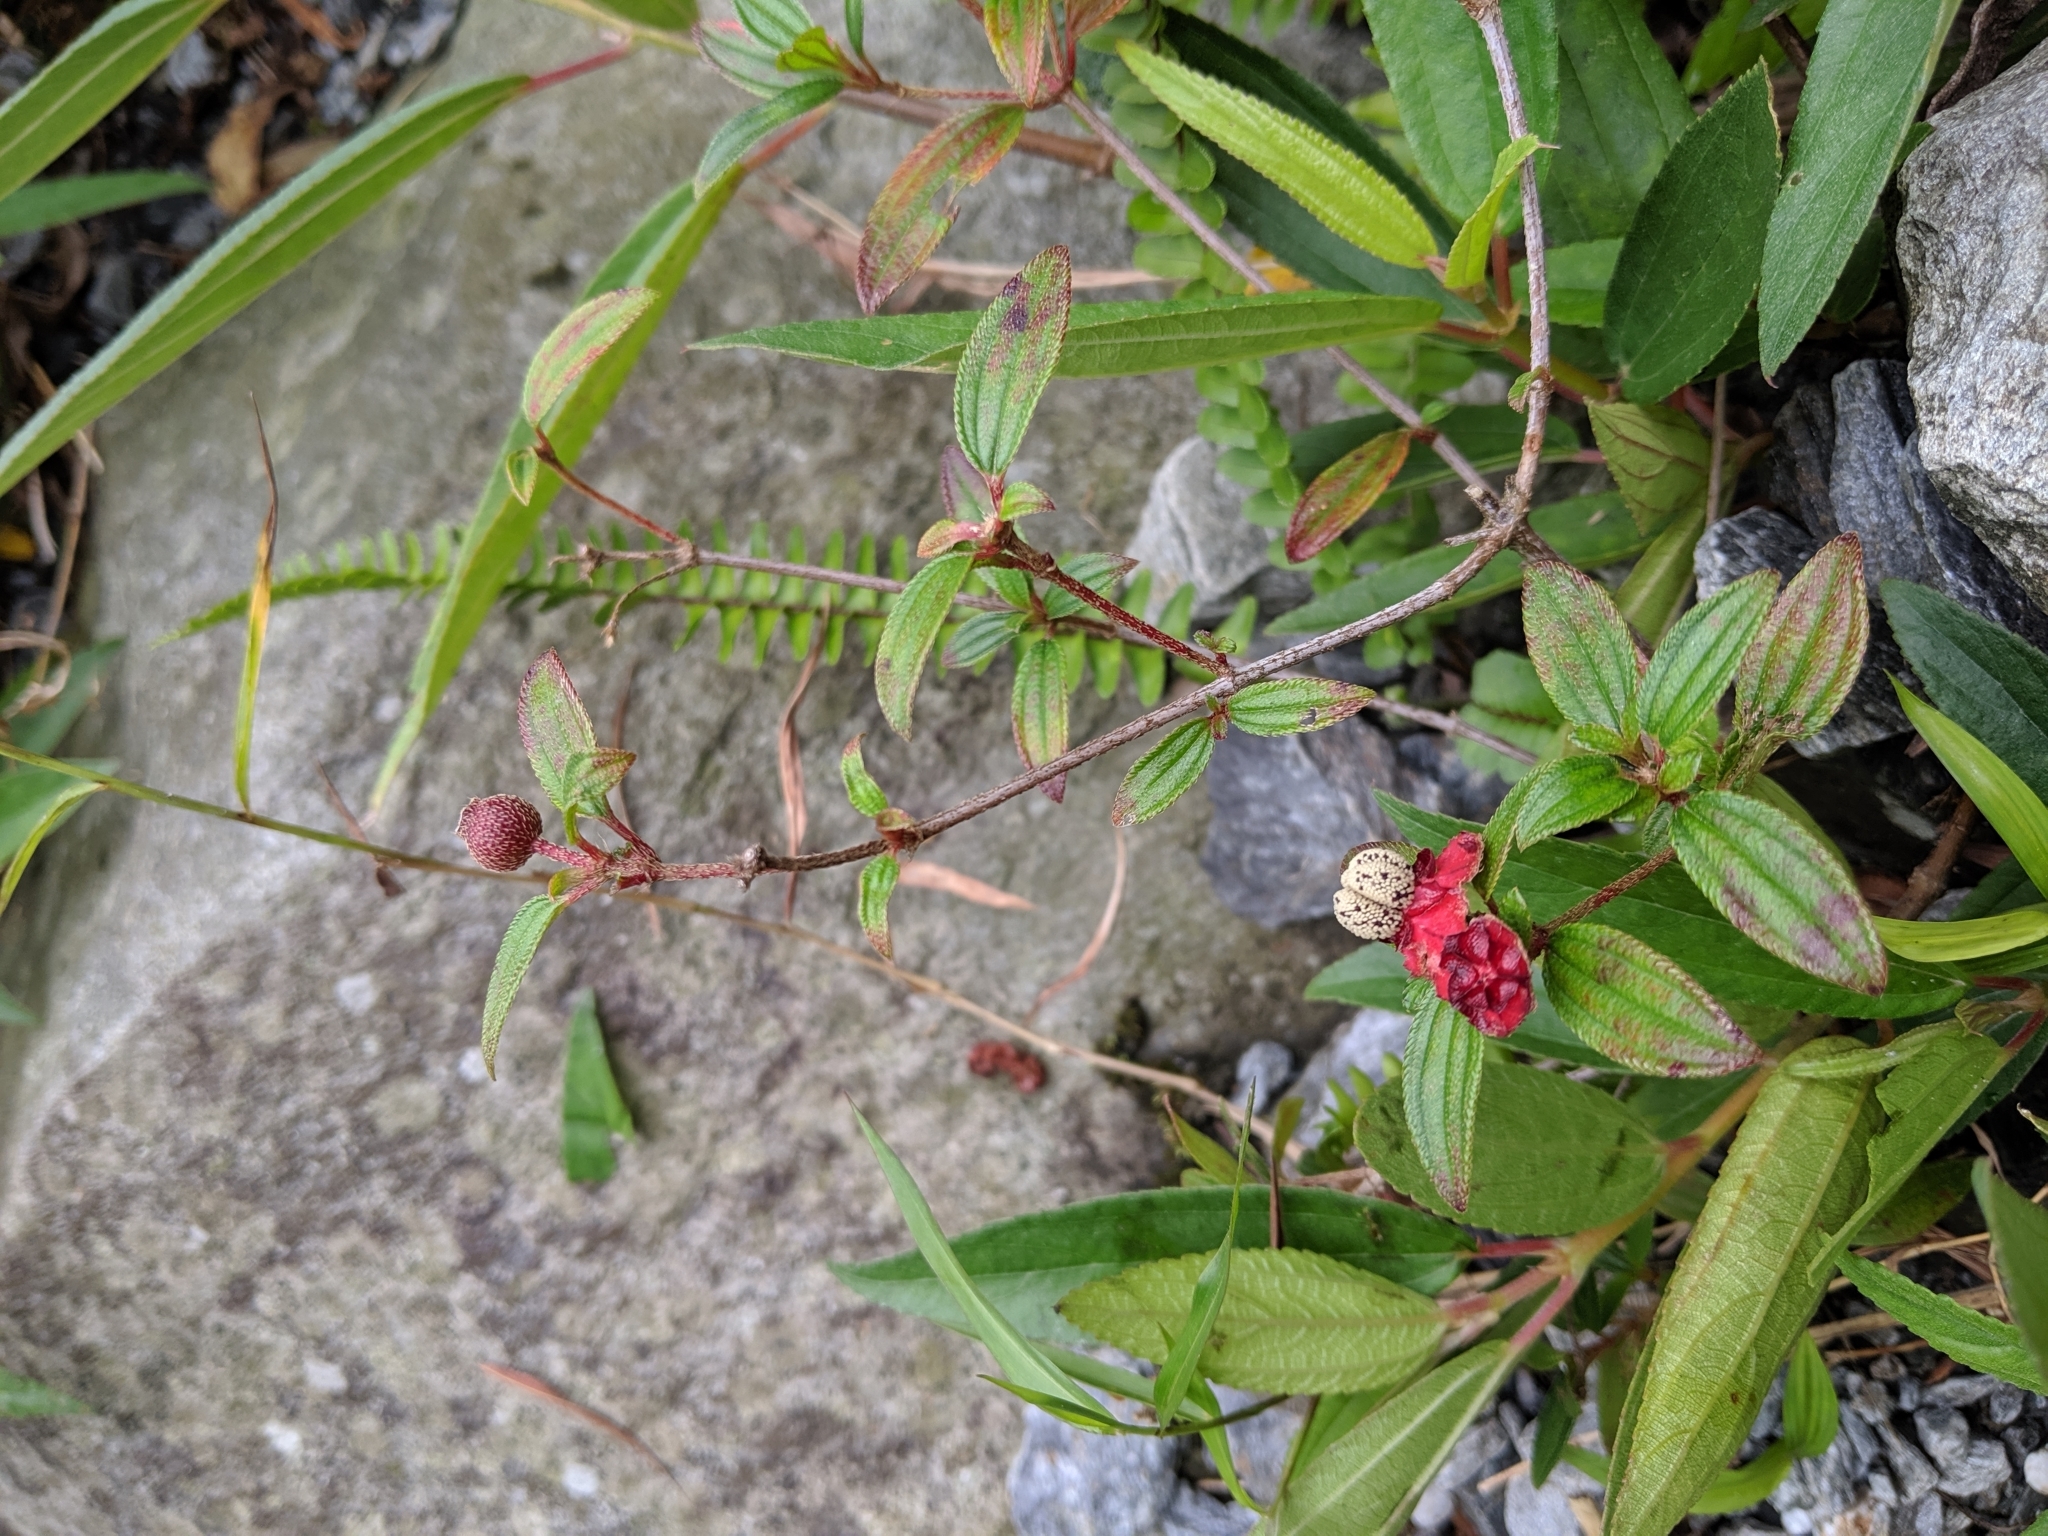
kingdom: Plantae
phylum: Tracheophyta
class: Magnoliopsida
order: Myrtales
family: Melastomataceae
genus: Melastoma
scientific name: Melastoma scaberrima
